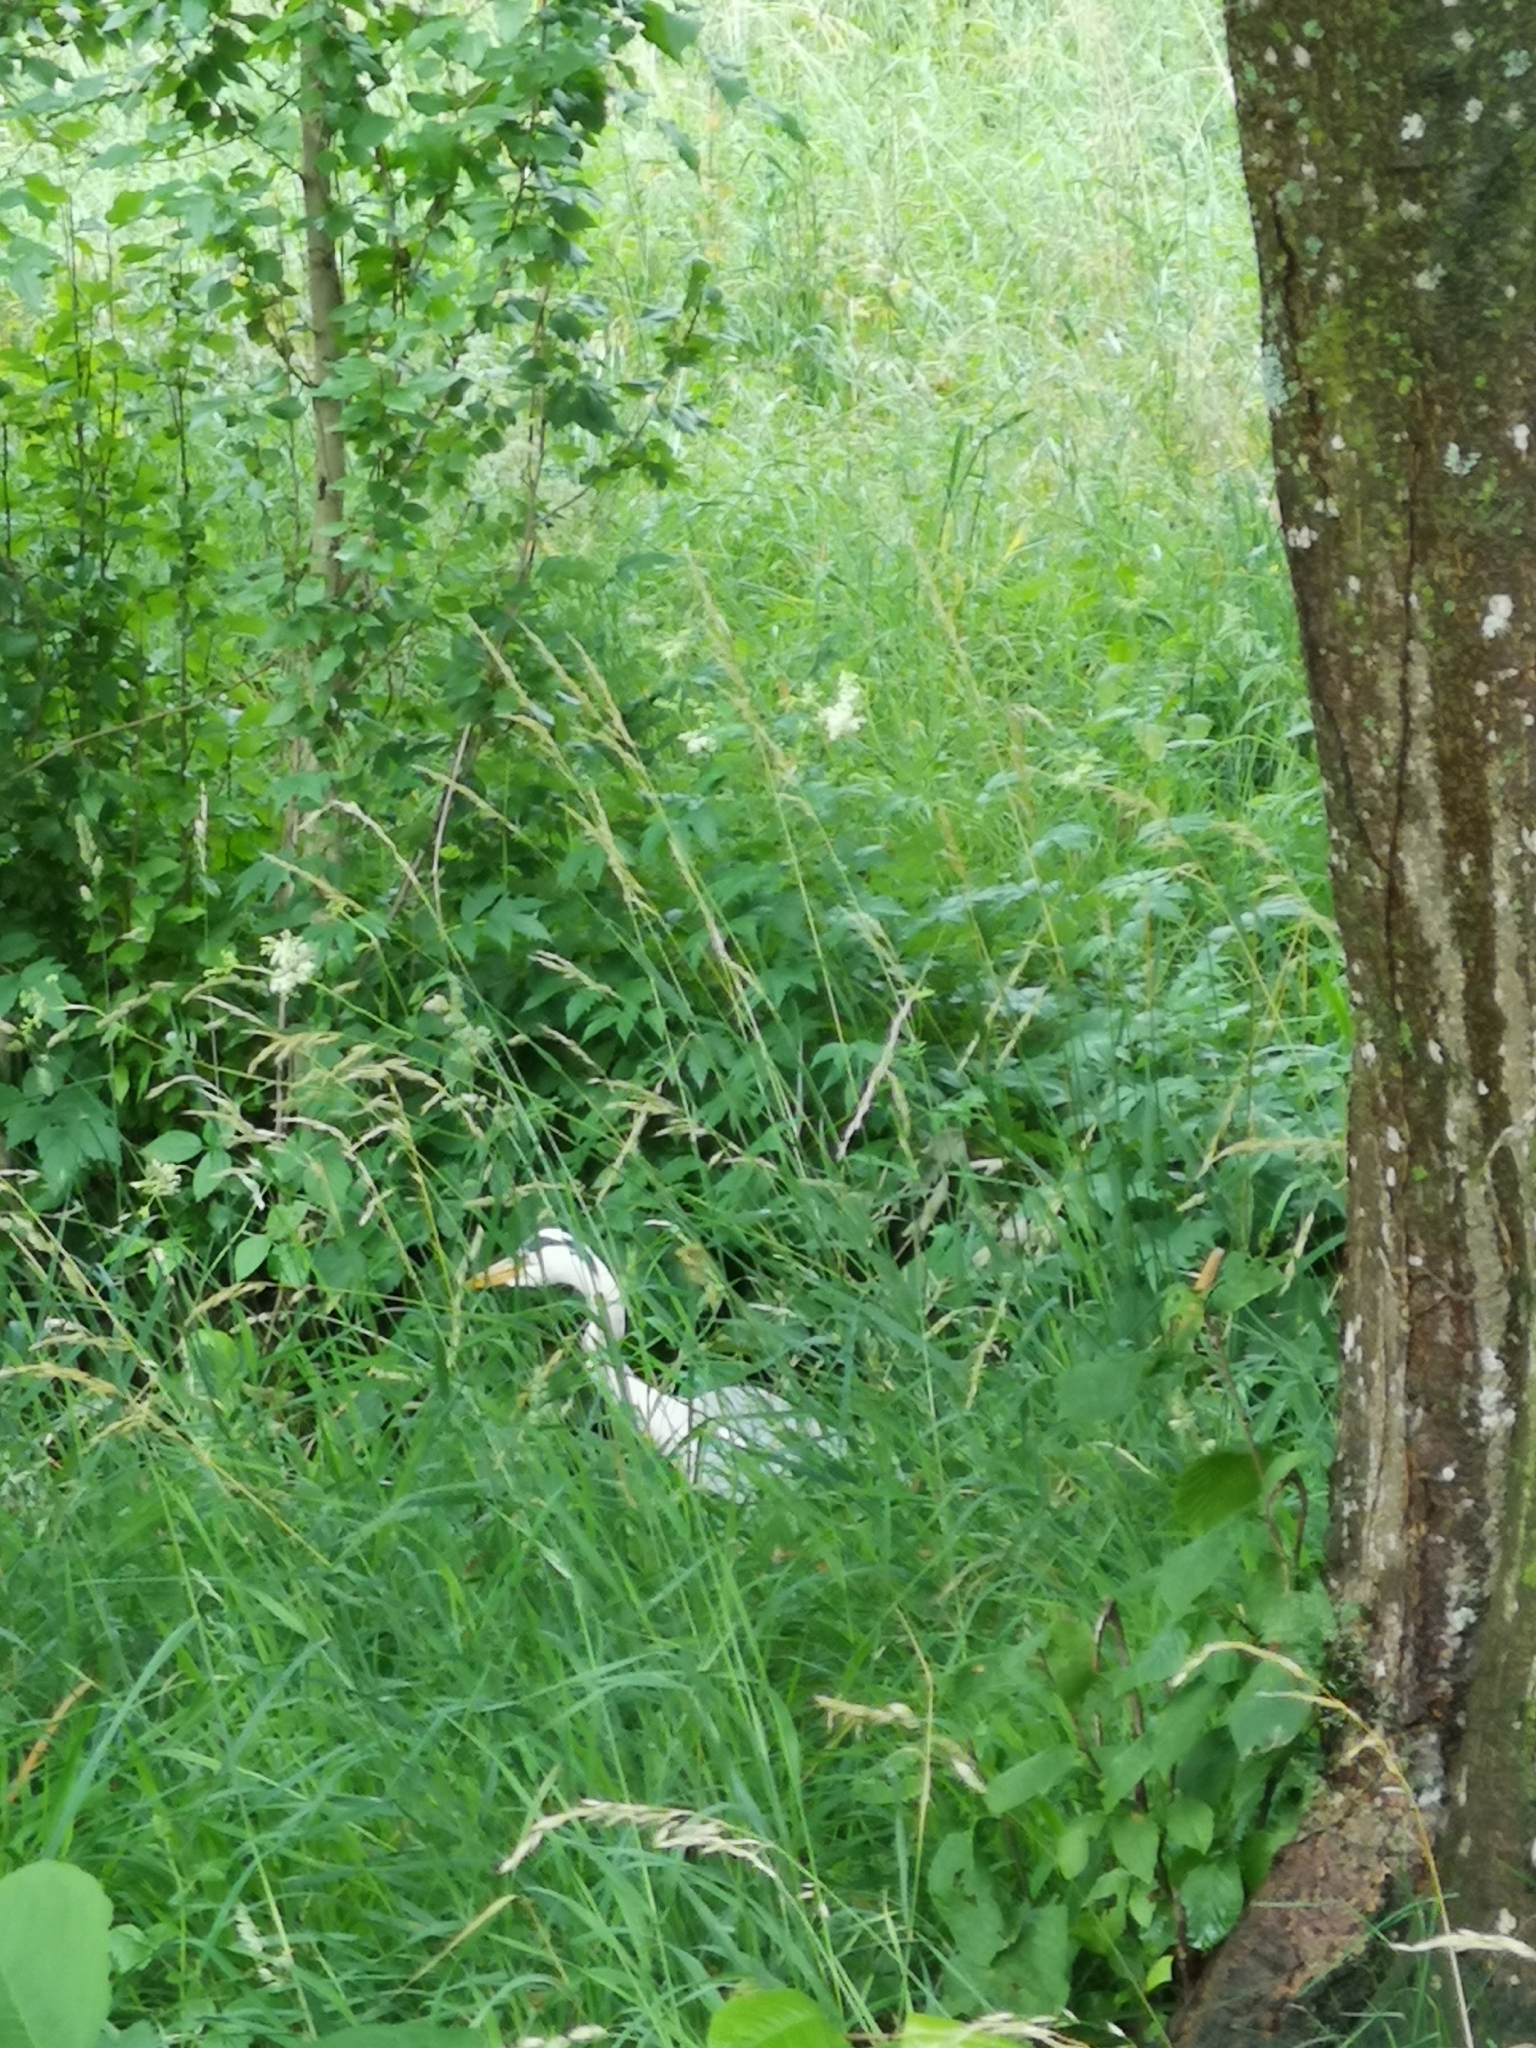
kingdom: Animalia
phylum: Chordata
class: Aves
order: Pelecaniformes
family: Ardeidae
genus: Ardea
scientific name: Ardea cinerea
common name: Grey heron
